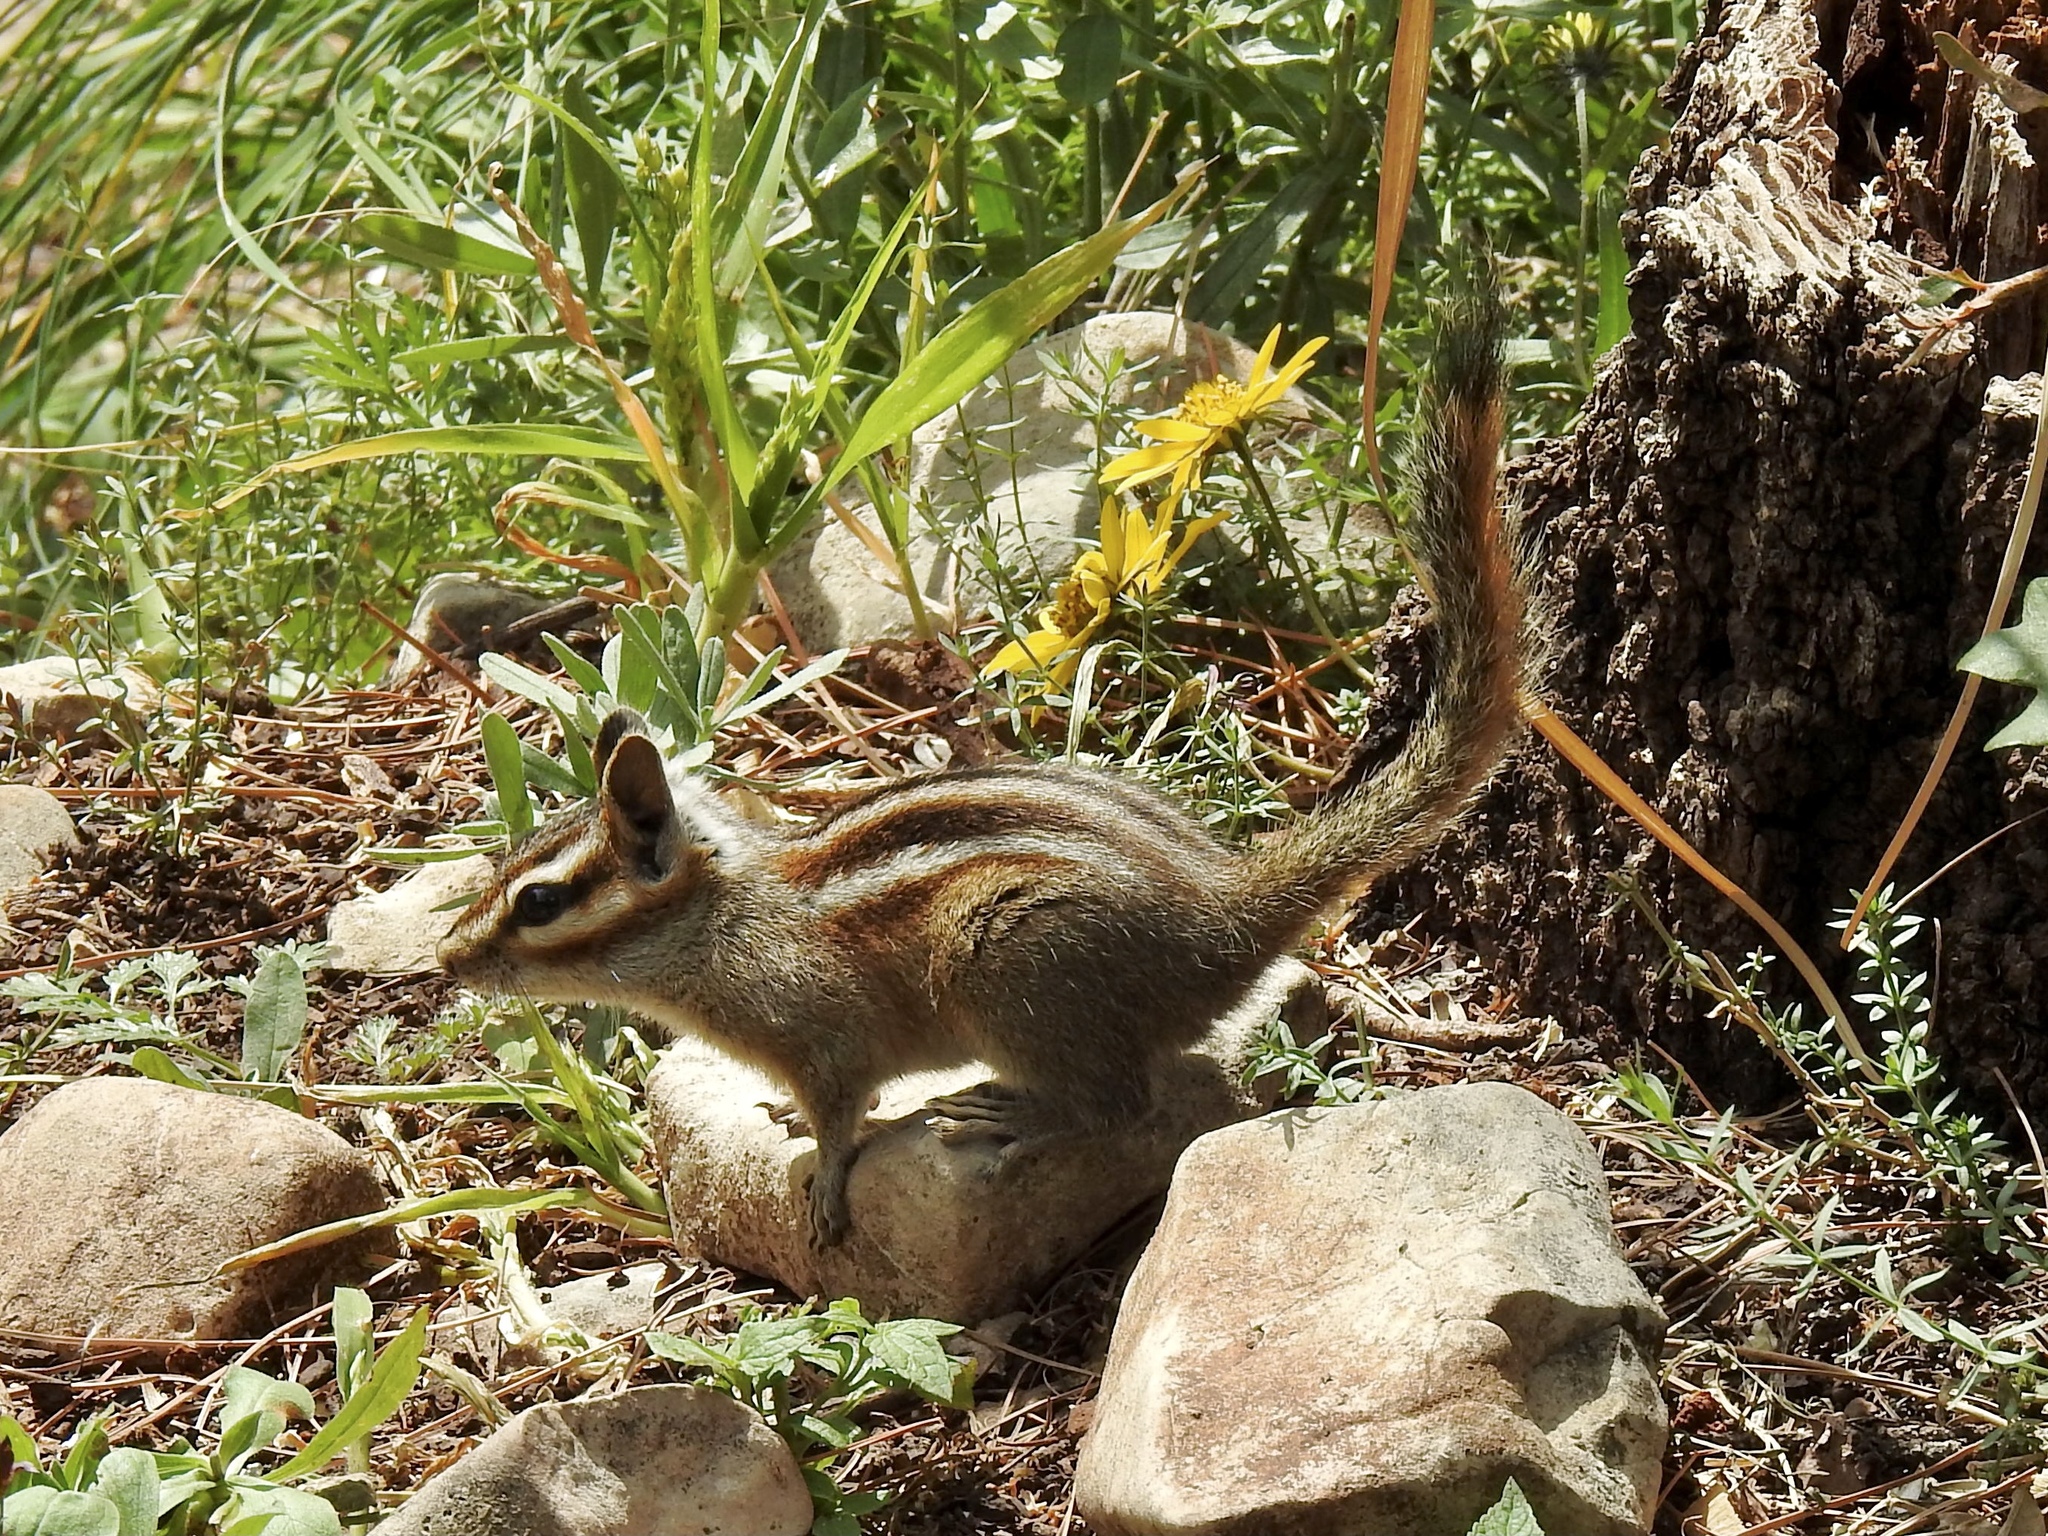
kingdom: Animalia
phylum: Chordata
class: Mammalia
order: Rodentia
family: Sciuridae
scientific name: Sciuridae
